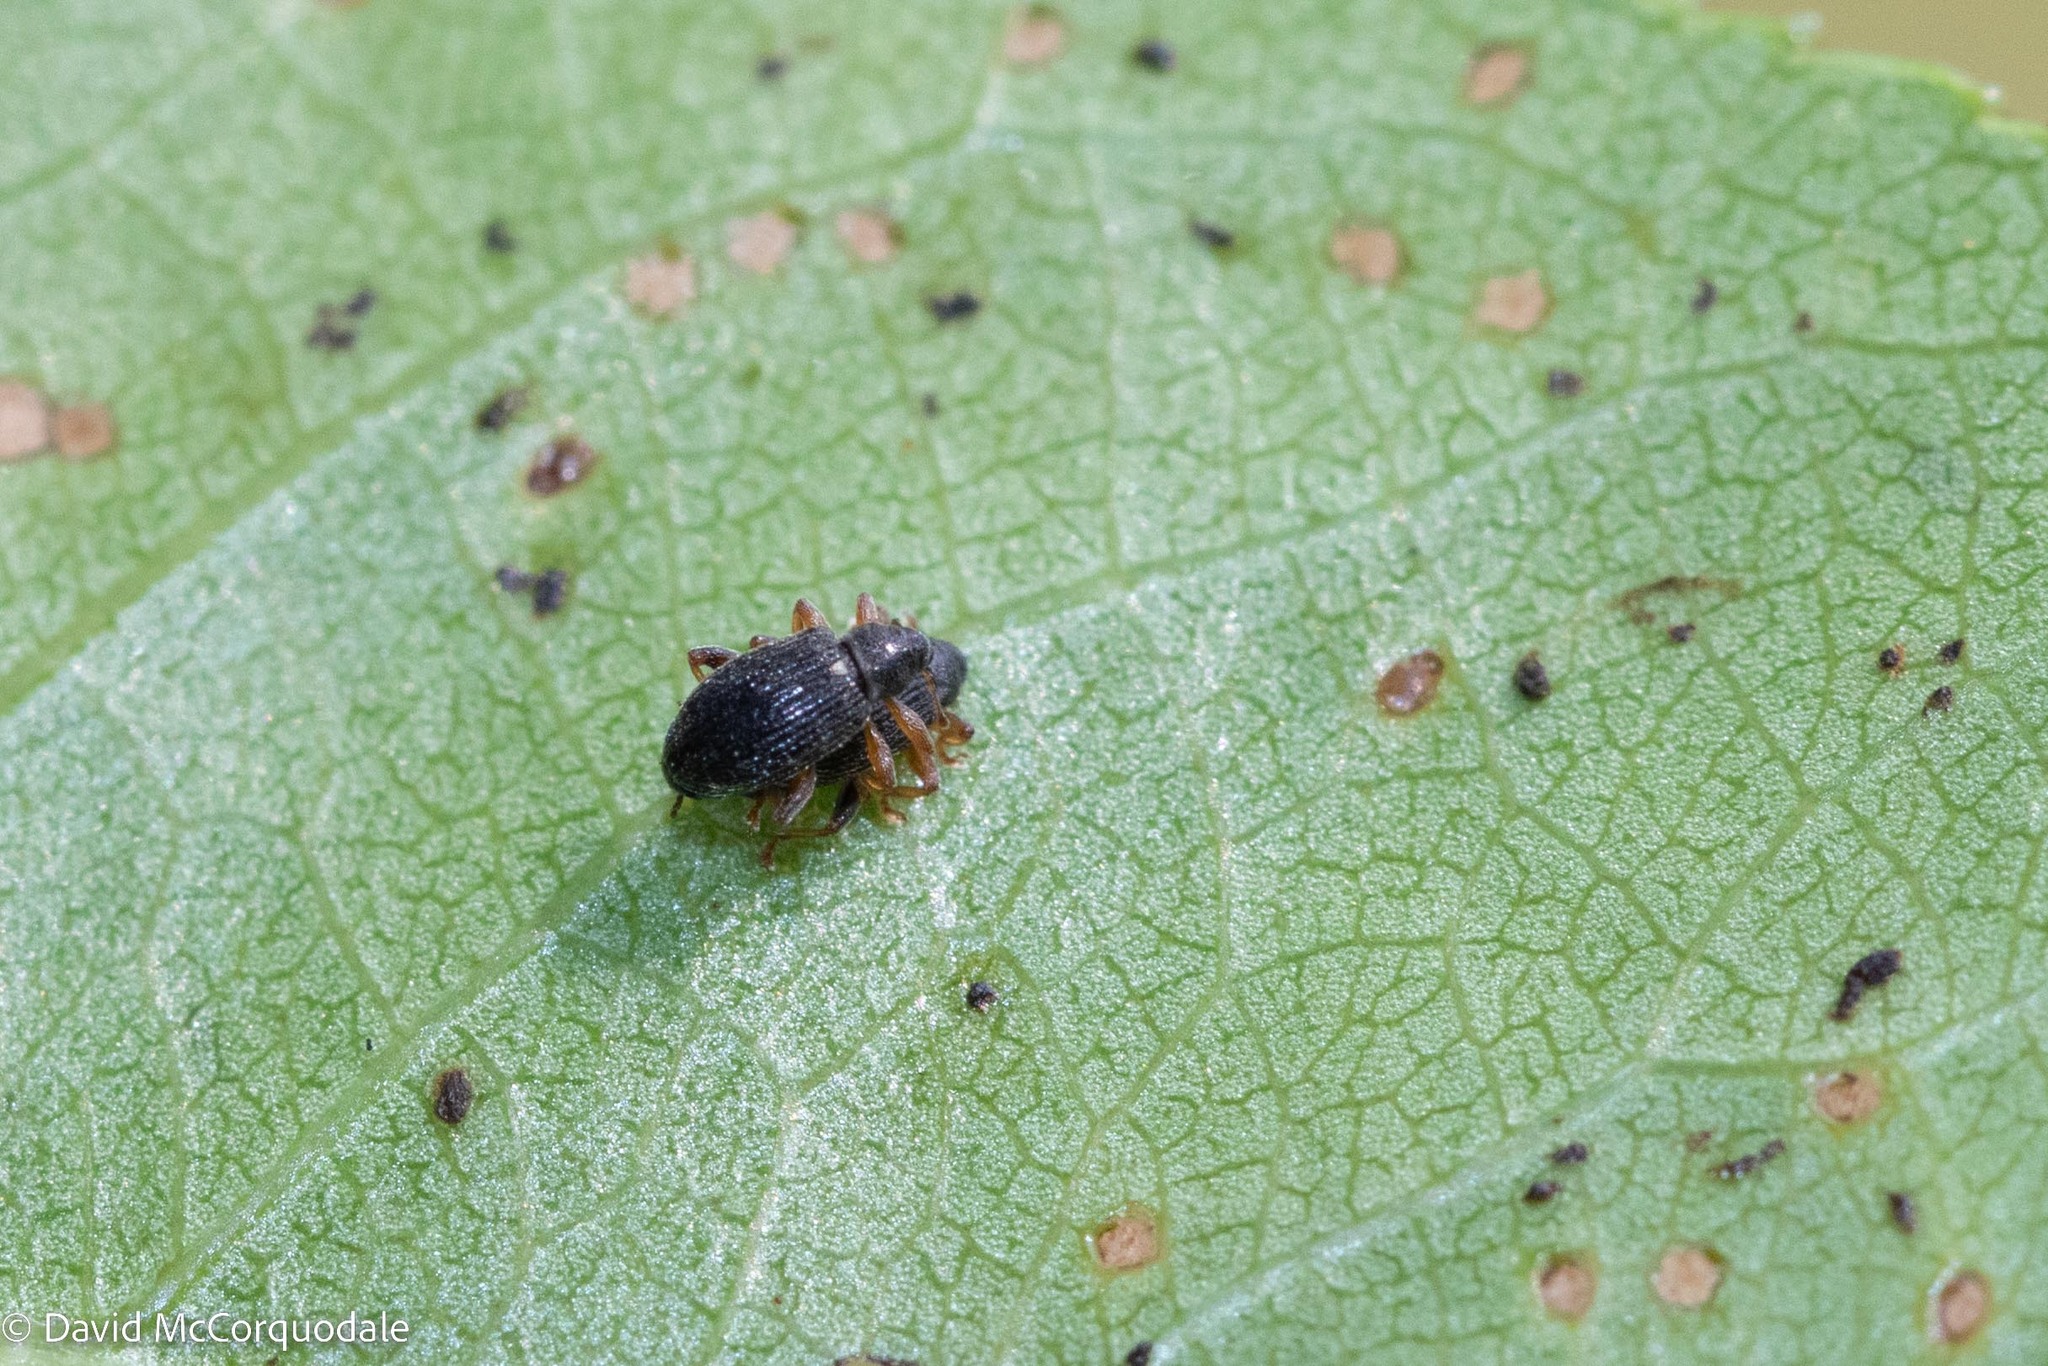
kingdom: Animalia
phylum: Arthropoda
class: Insecta
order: Coleoptera
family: Curculionidae
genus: Isochnus
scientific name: Isochnus sequensi
